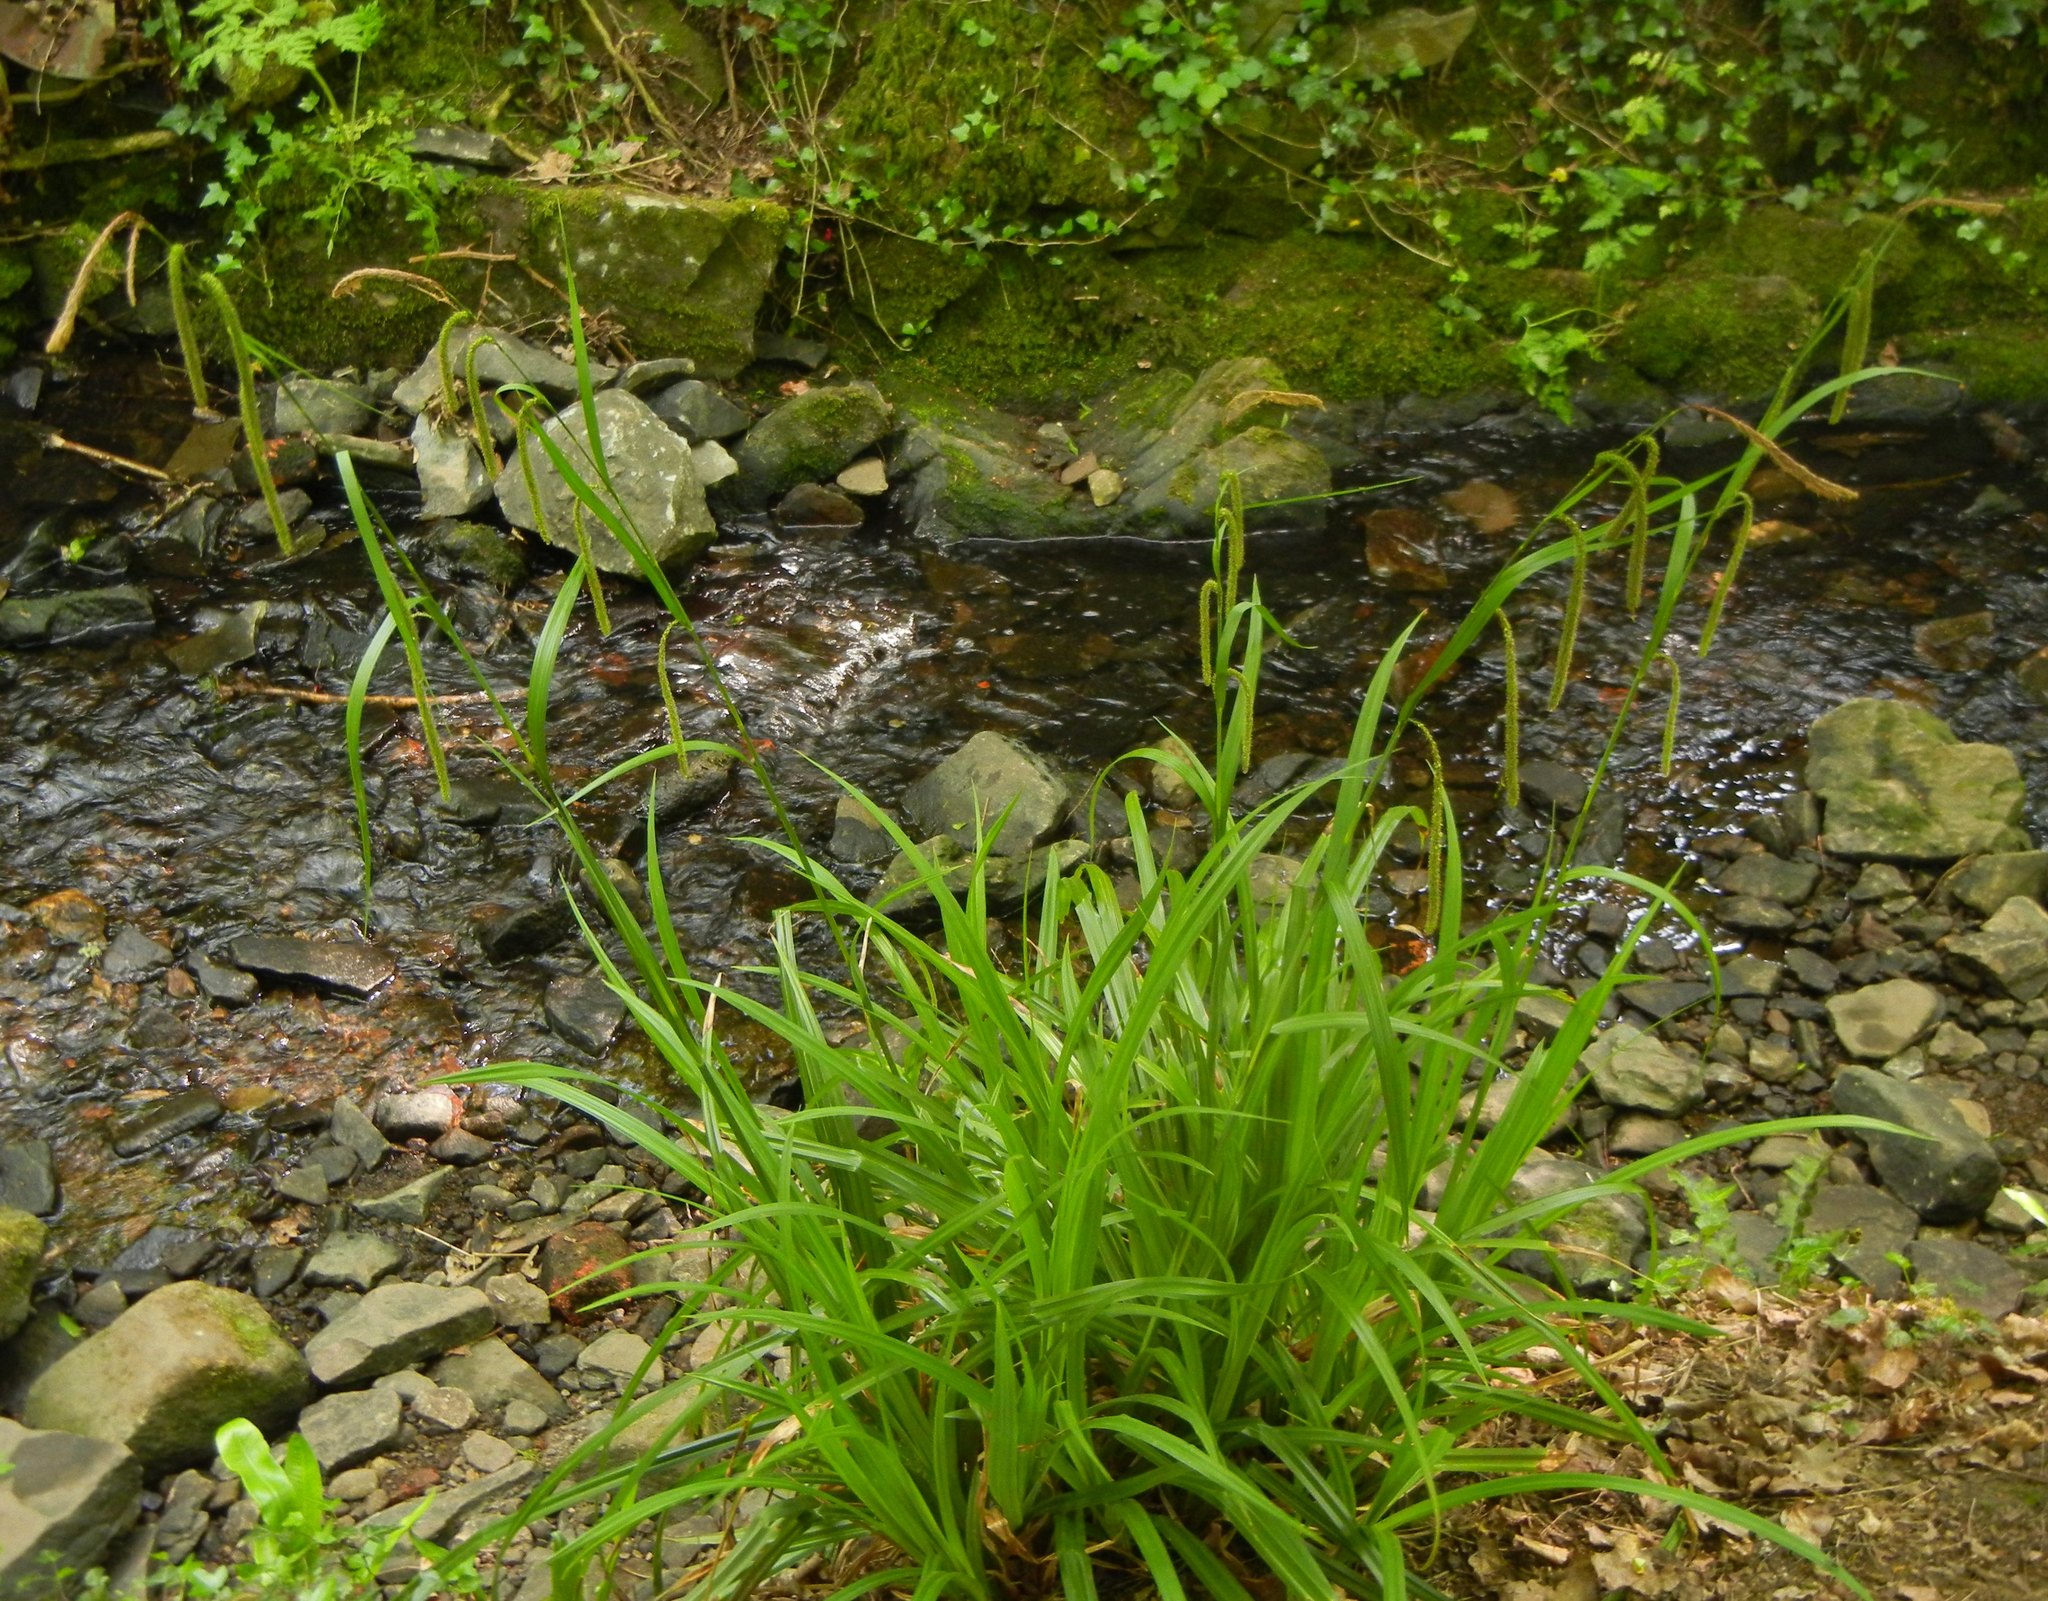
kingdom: Plantae
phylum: Tracheophyta
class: Liliopsida
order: Poales
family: Cyperaceae
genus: Carex
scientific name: Carex pendula
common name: Pendulous sedge
